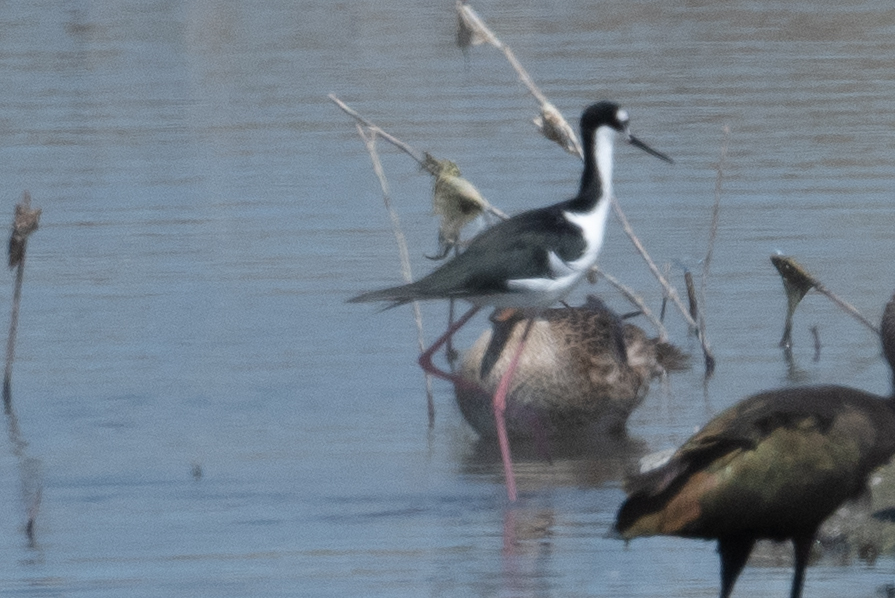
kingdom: Animalia
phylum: Chordata
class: Aves
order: Charadriiformes
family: Recurvirostridae
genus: Himantopus
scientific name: Himantopus mexicanus
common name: Black-necked stilt
